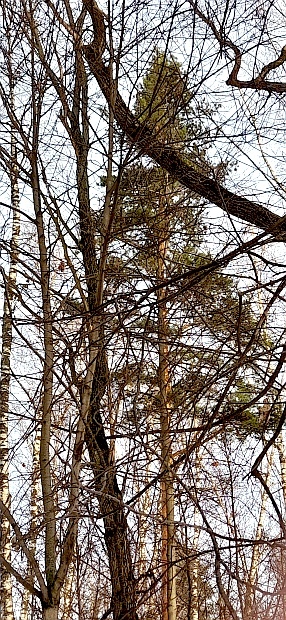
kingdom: Plantae
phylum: Tracheophyta
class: Pinopsida
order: Pinales
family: Pinaceae
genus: Pinus
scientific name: Pinus sylvestris
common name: Scots pine
